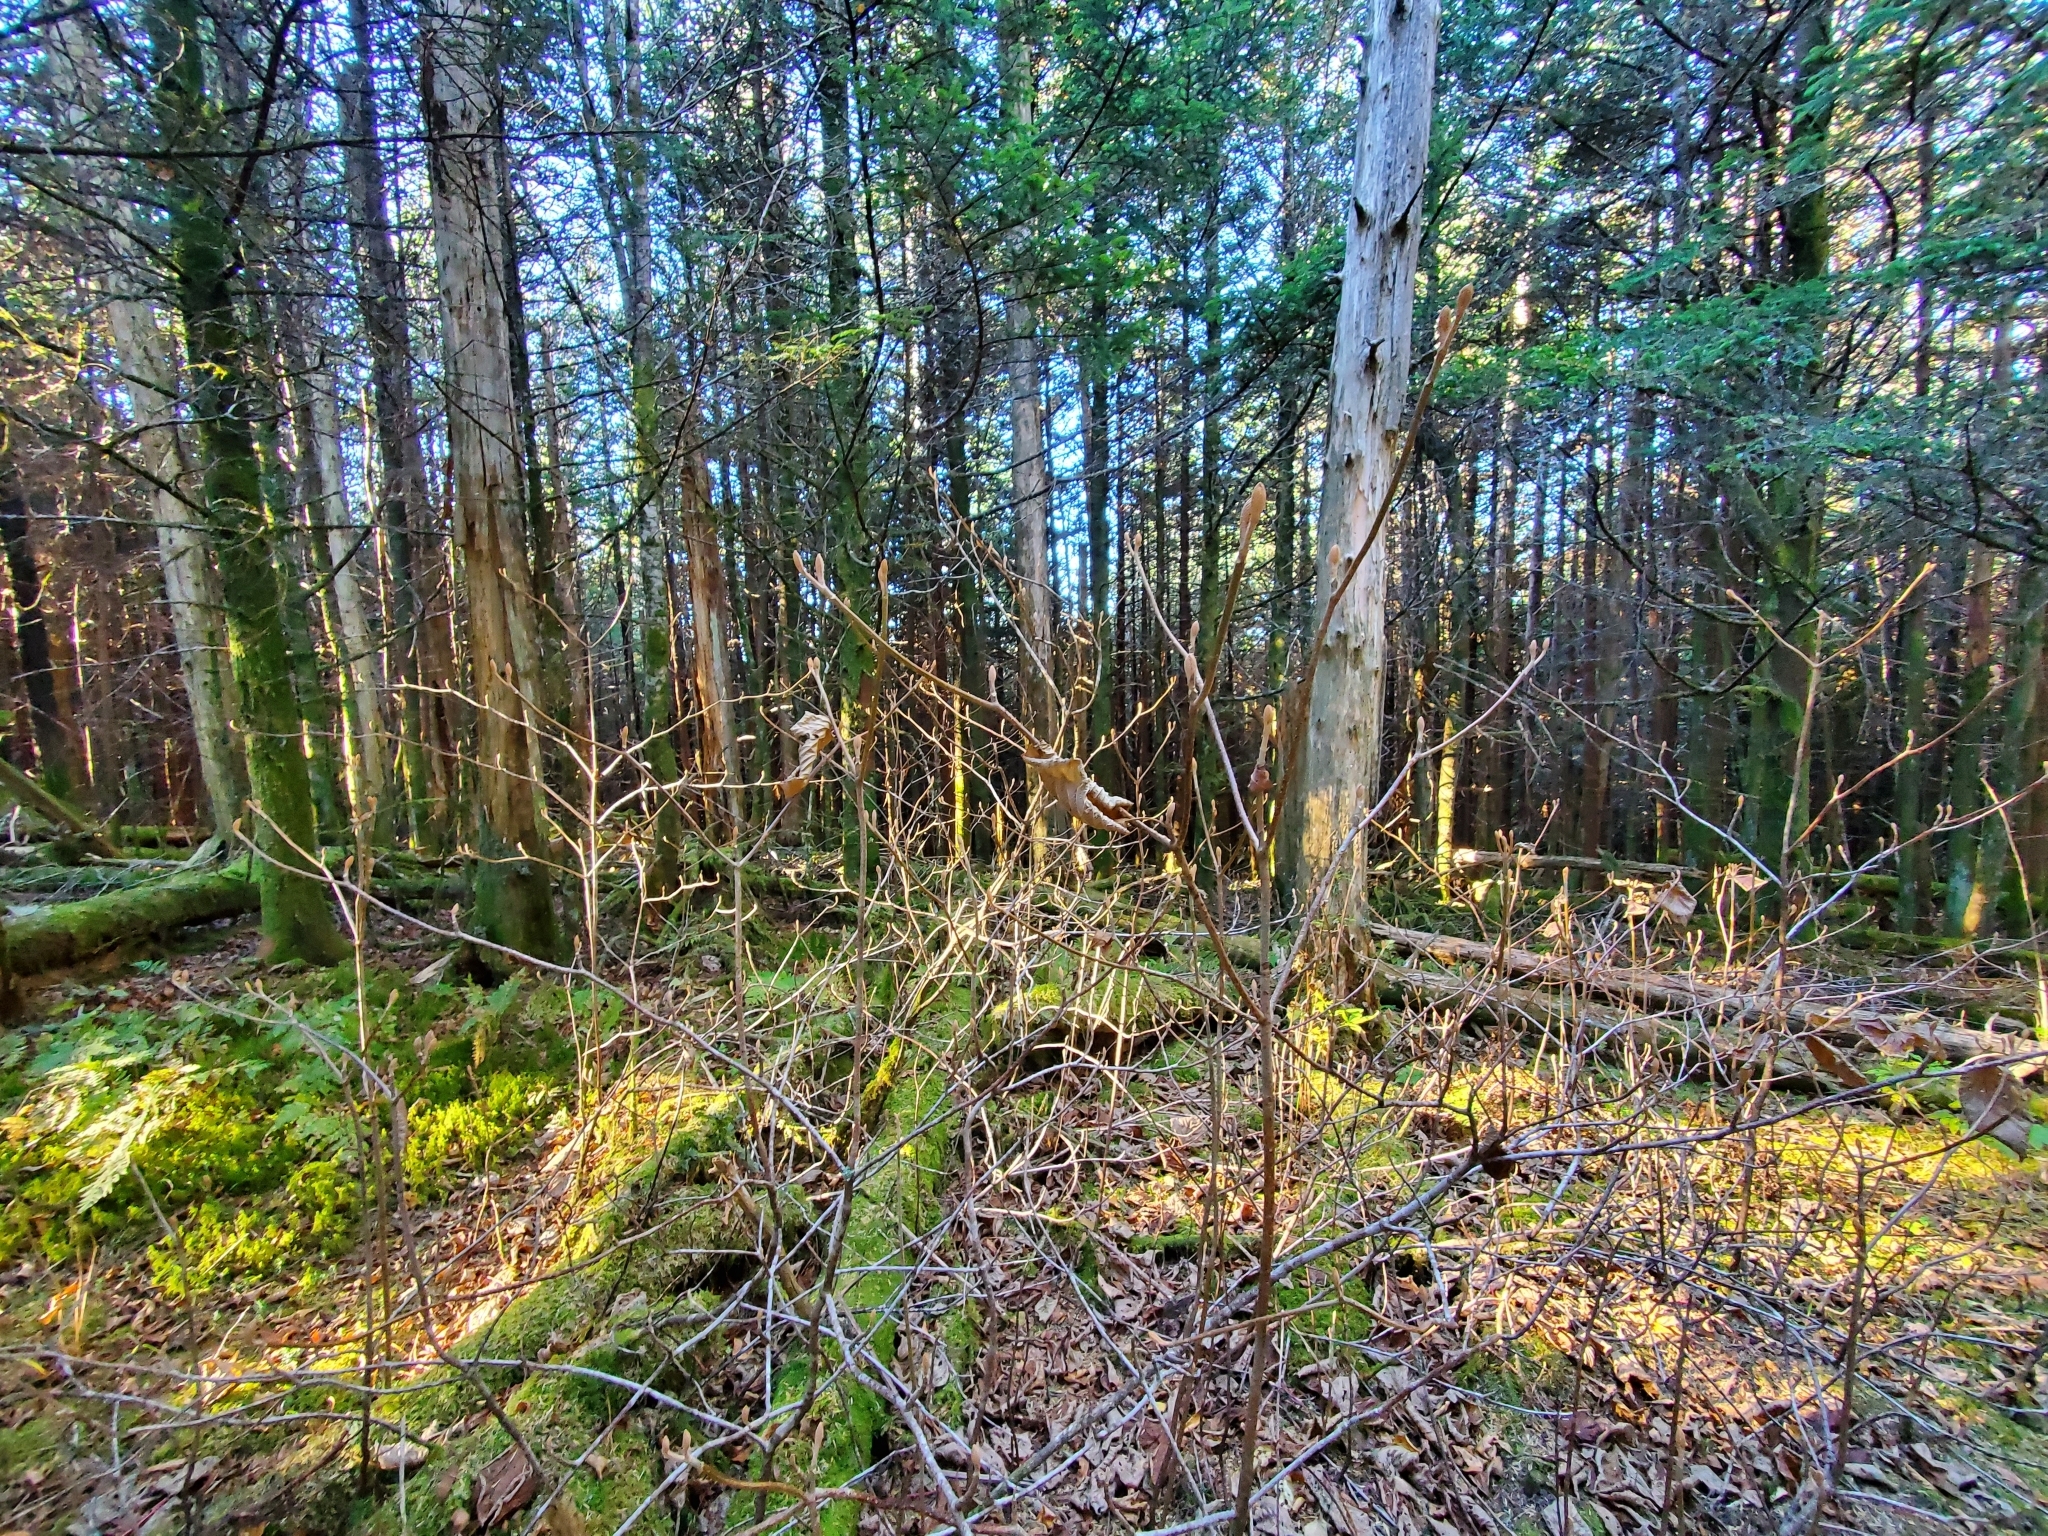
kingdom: Plantae
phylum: Tracheophyta
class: Magnoliopsida
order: Dipsacales
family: Viburnaceae
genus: Viburnum
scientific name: Viburnum lantanoides
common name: Hobblebush
